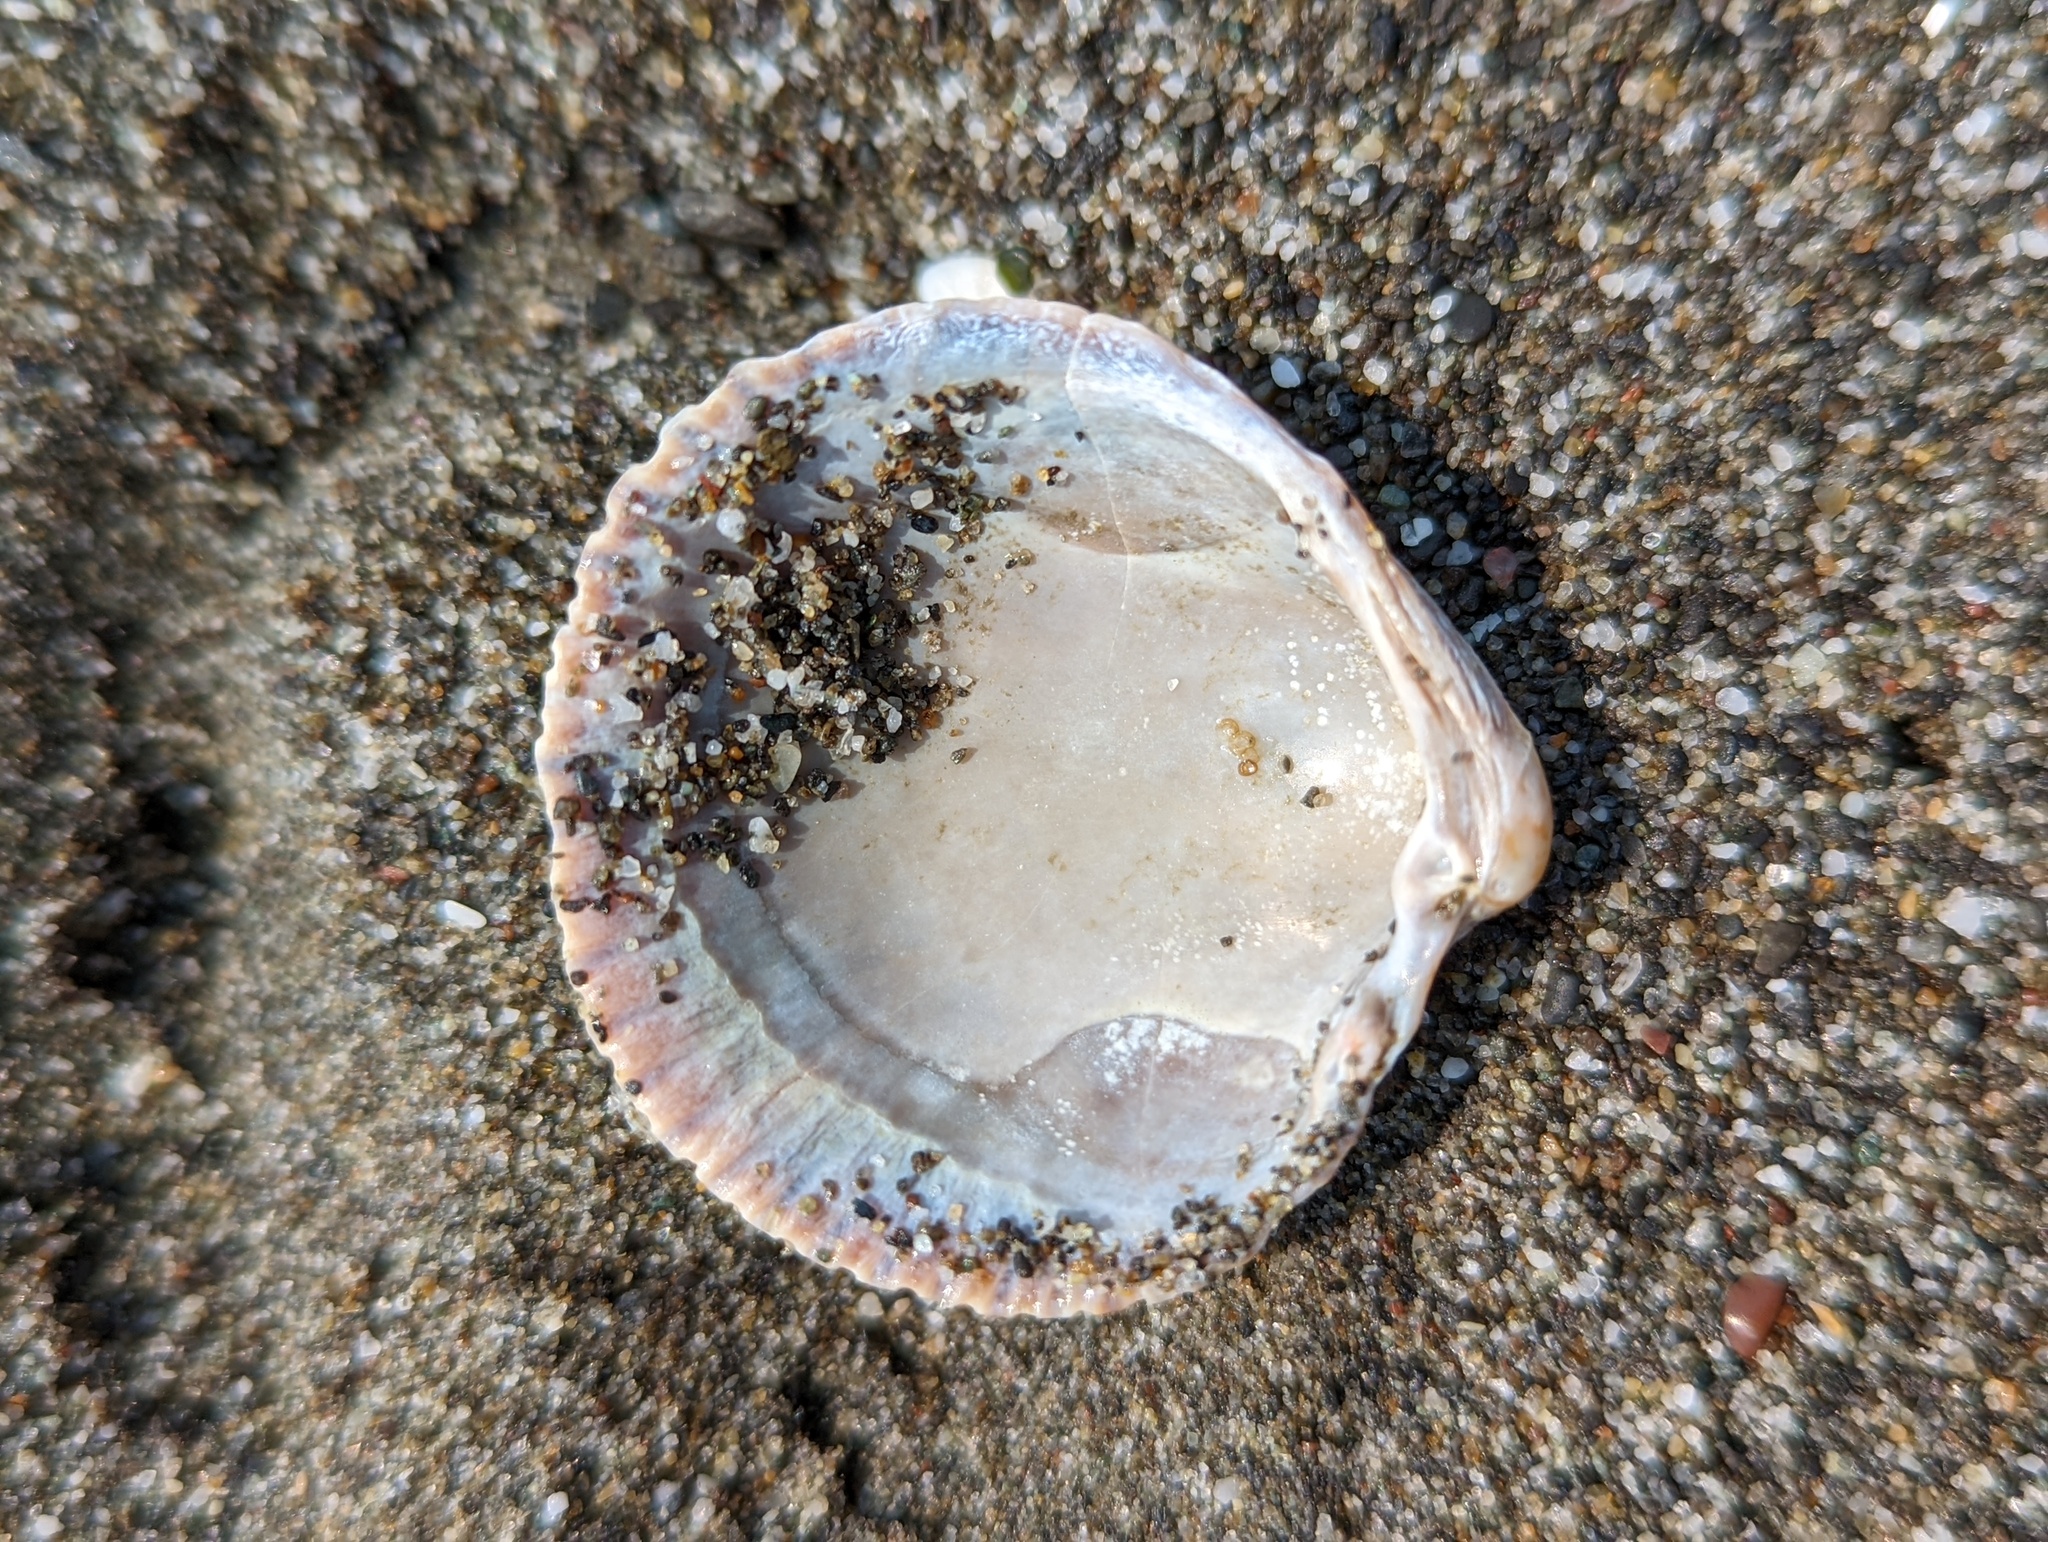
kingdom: Animalia
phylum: Mollusca
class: Bivalvia
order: Cardiida
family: Cardiidae
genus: Clinocardium
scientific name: Clinocardium nuttallii
